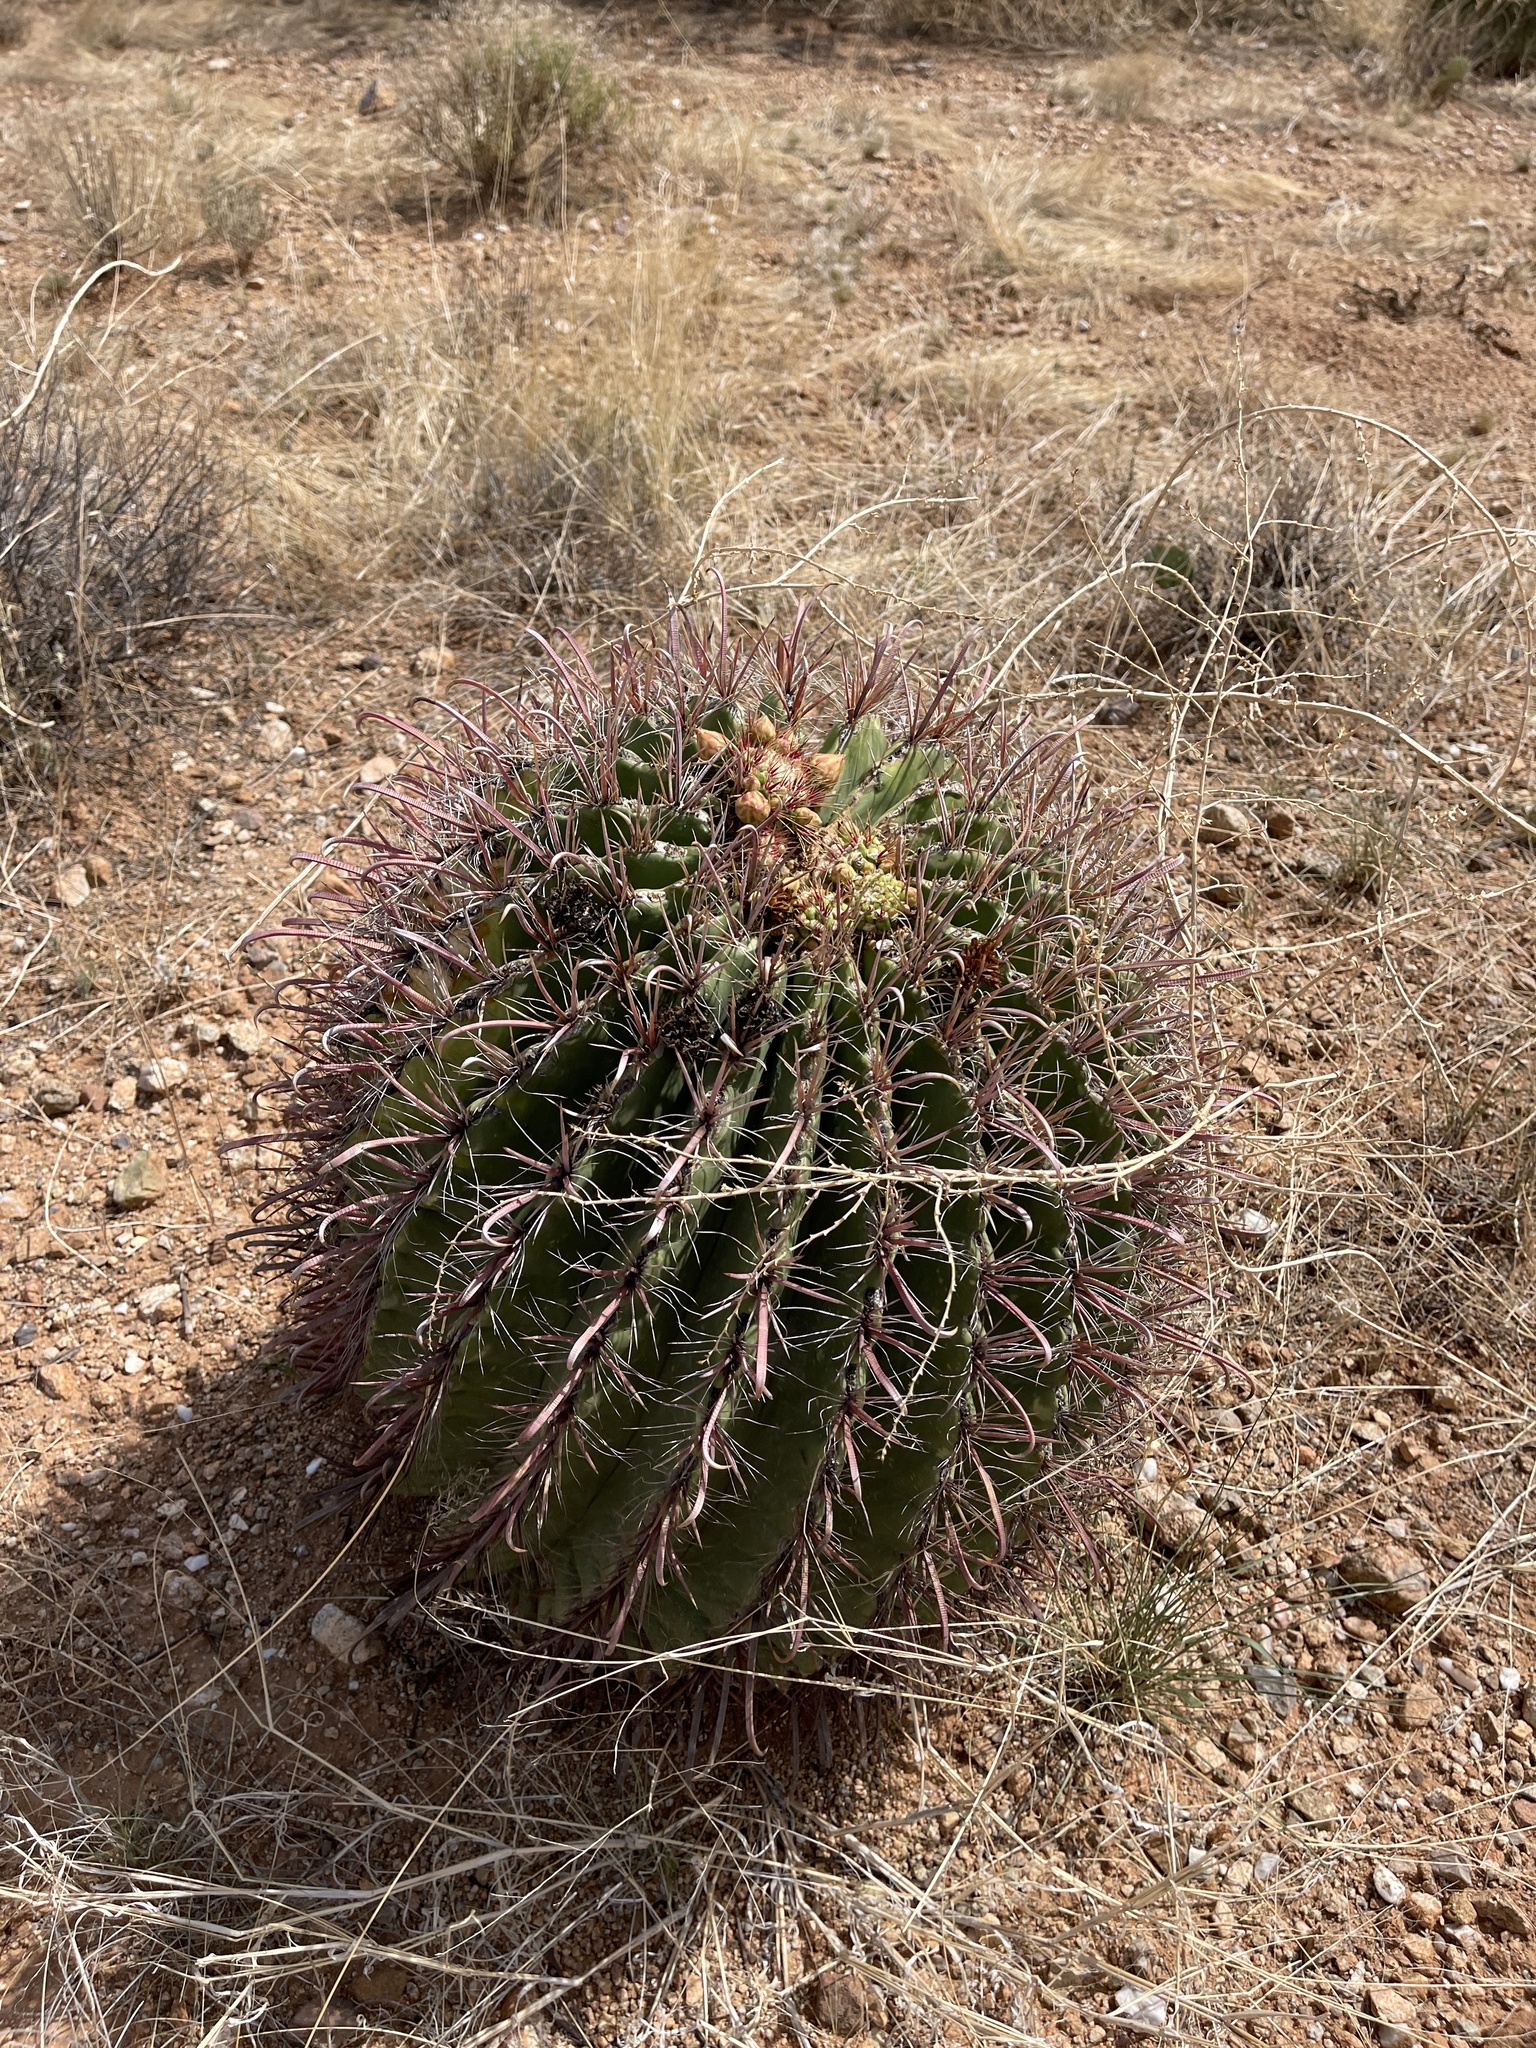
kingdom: Plantae
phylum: Tracheophyta
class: Magnoliopsida
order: Caryophyllales
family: Cactaceae
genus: Ferocactus
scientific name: Ferocactus wislizeni
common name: Candy barrel cactus
